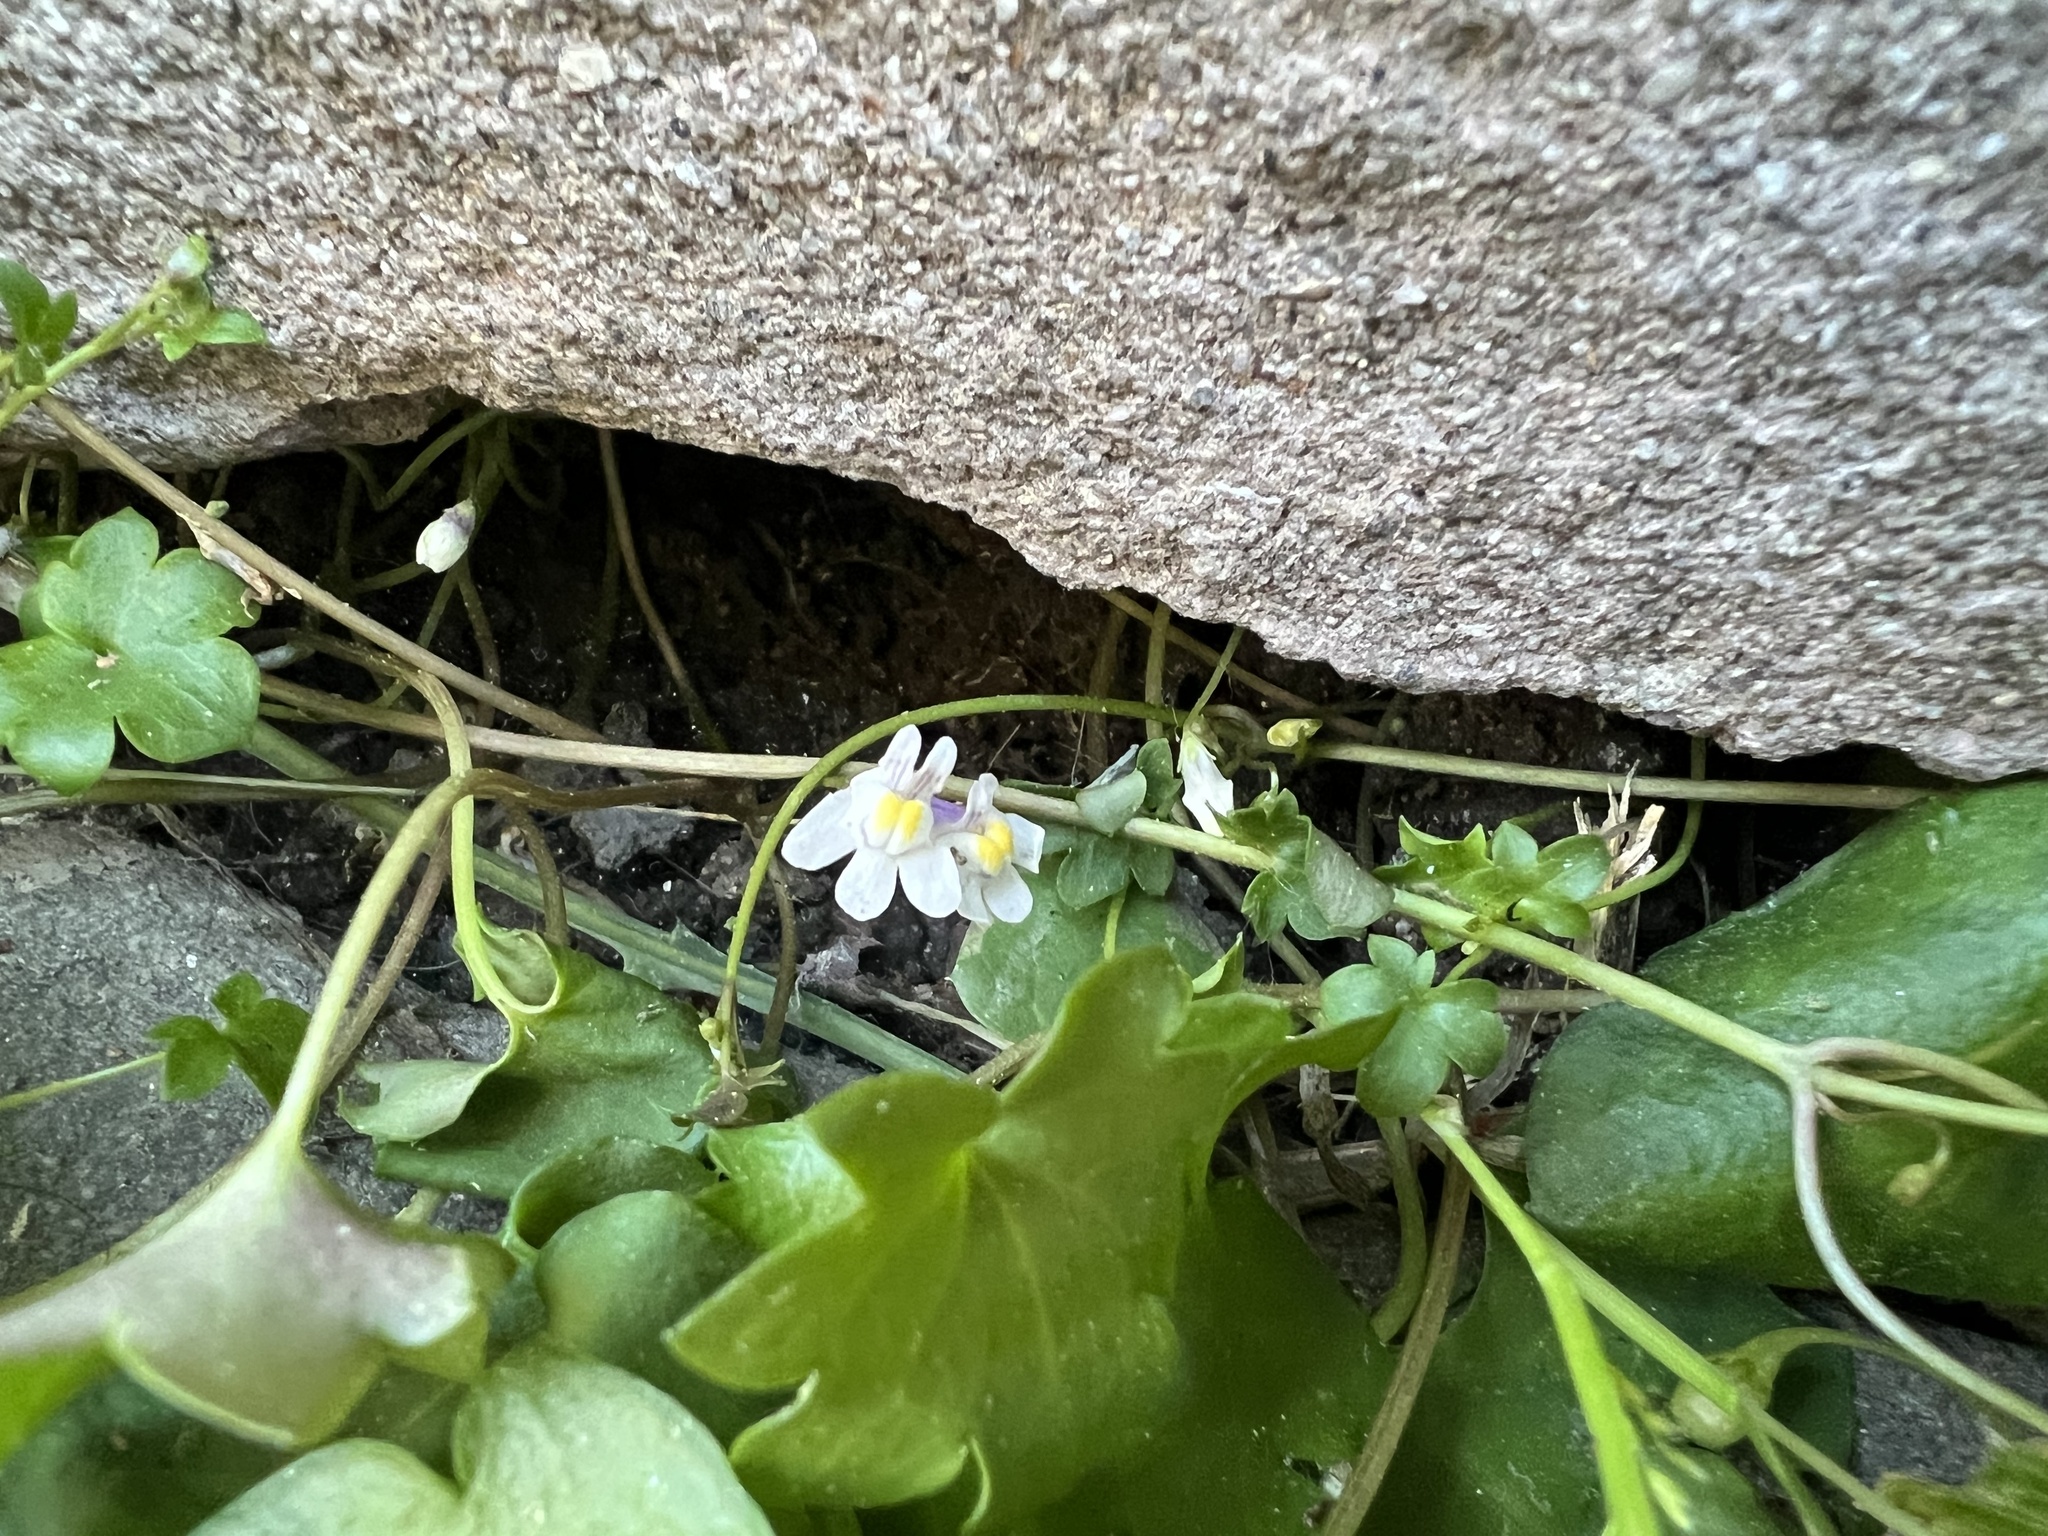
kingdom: Plantae
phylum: Tracheophyta
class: Magnoliopsida
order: Lamiales
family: Plantaginaceae
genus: Cymbalaria
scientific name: Cymbalaria muralis
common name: Ivy-leaved toadflax
